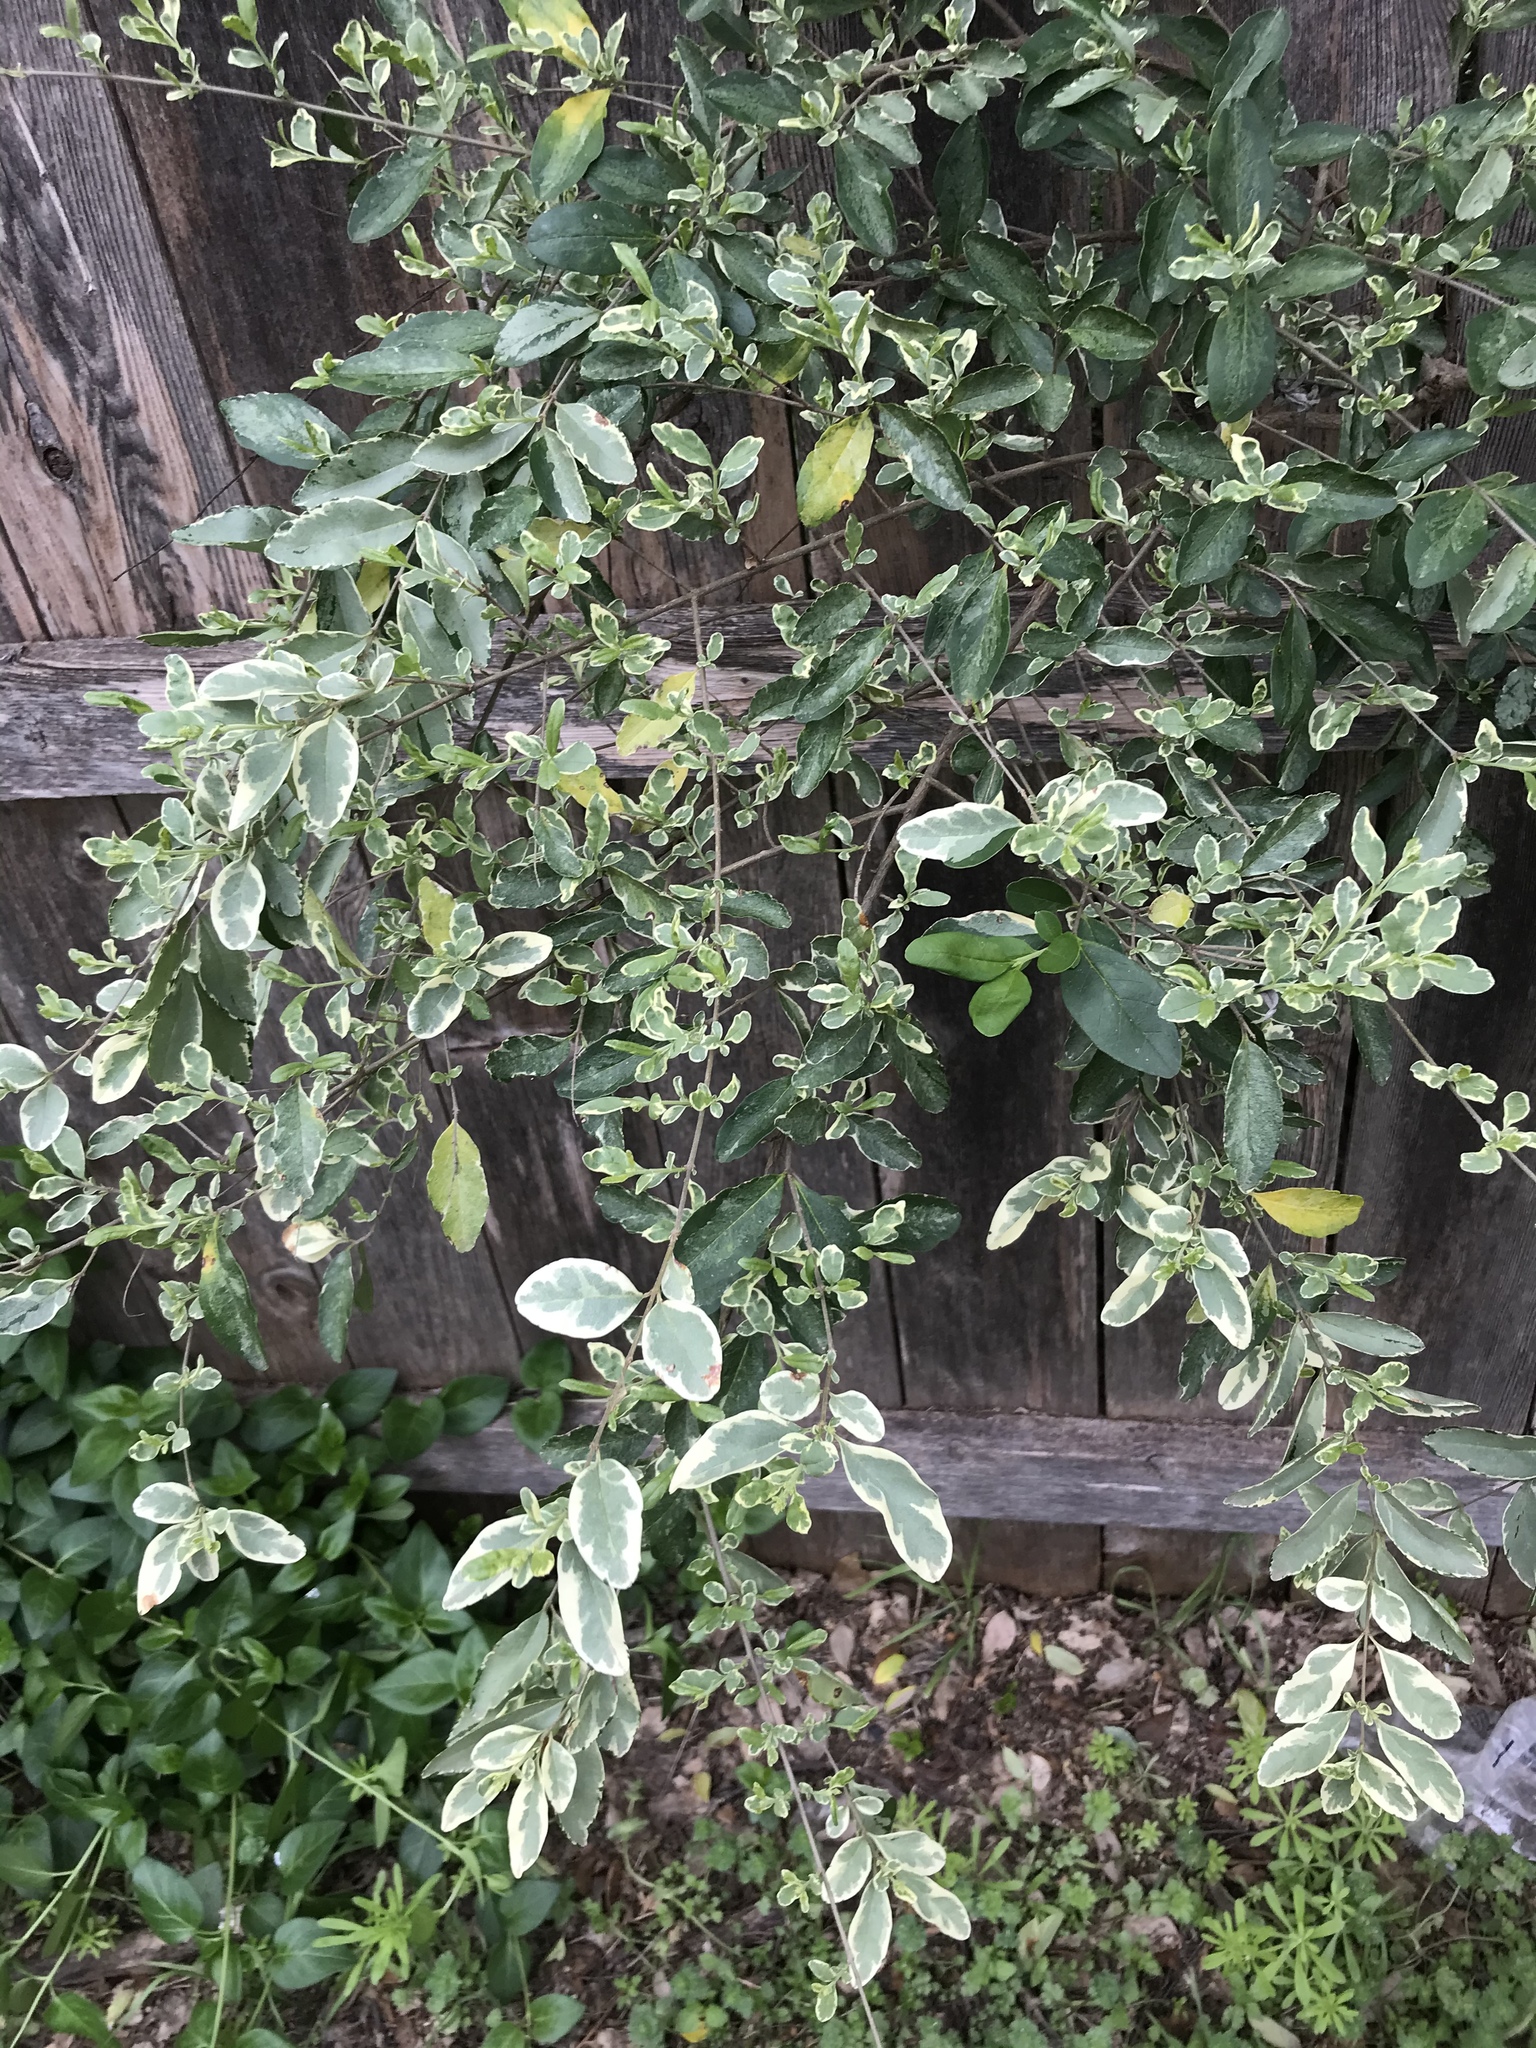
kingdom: Plantae
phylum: Tracheophyta
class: Magnoliopsida
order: Lamiales
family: Oleaceae
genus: Ligustrum
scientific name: Ligustrum sinense
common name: Chinese privet
